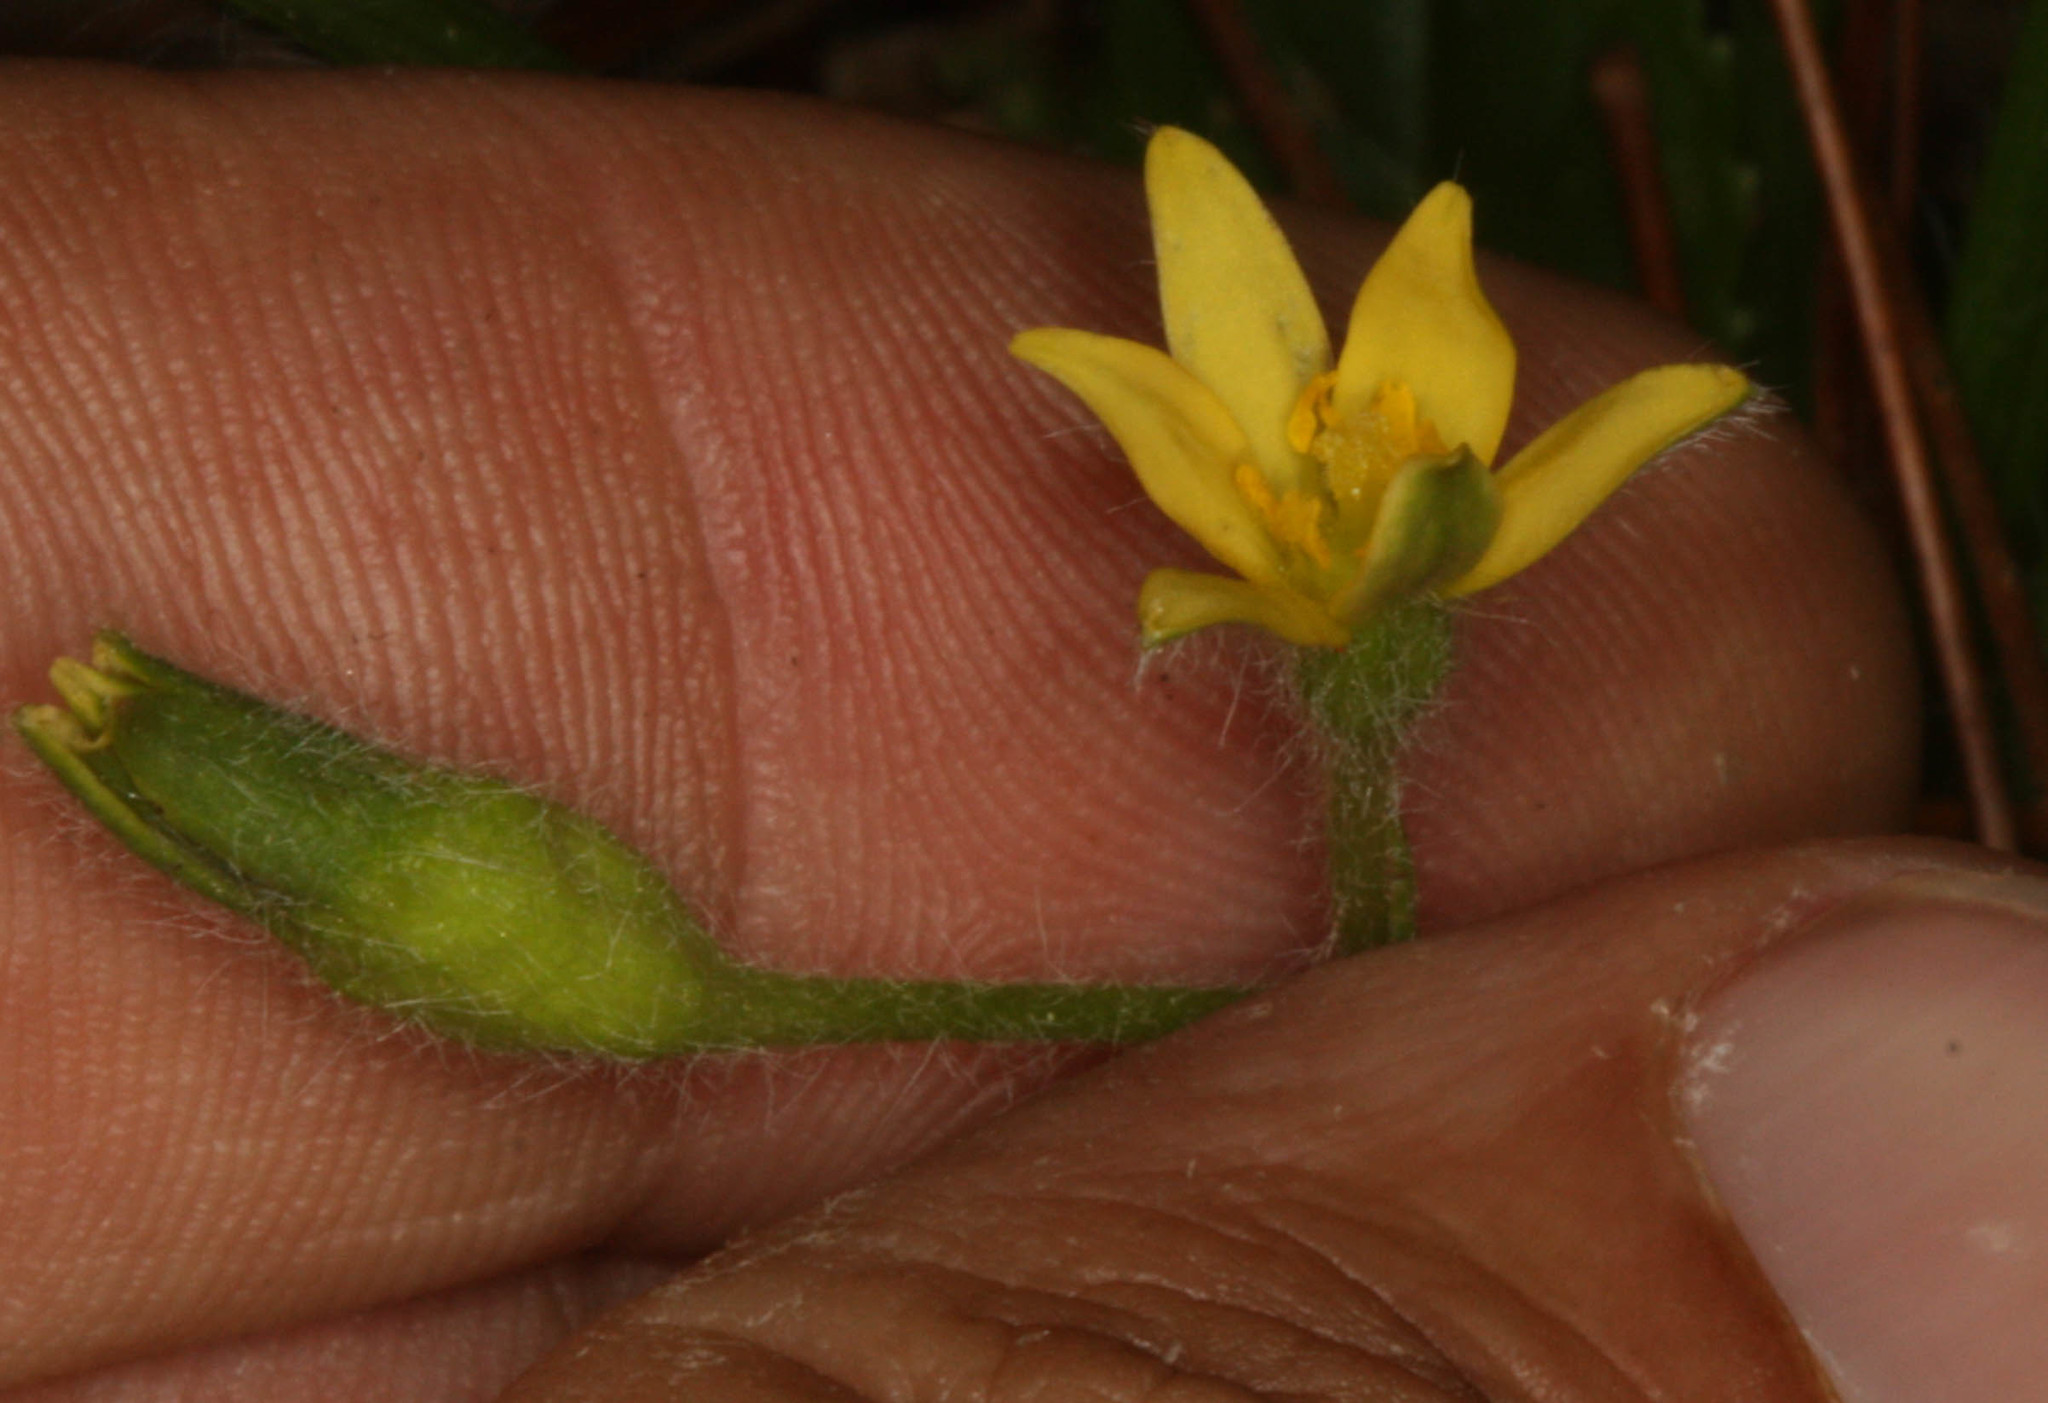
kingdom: Plantae
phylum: Tracheophyta
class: Liliopsida
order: Asparagales
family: Hypoxidaceae
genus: Hypoxis
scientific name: Hypoxis angustifolia
